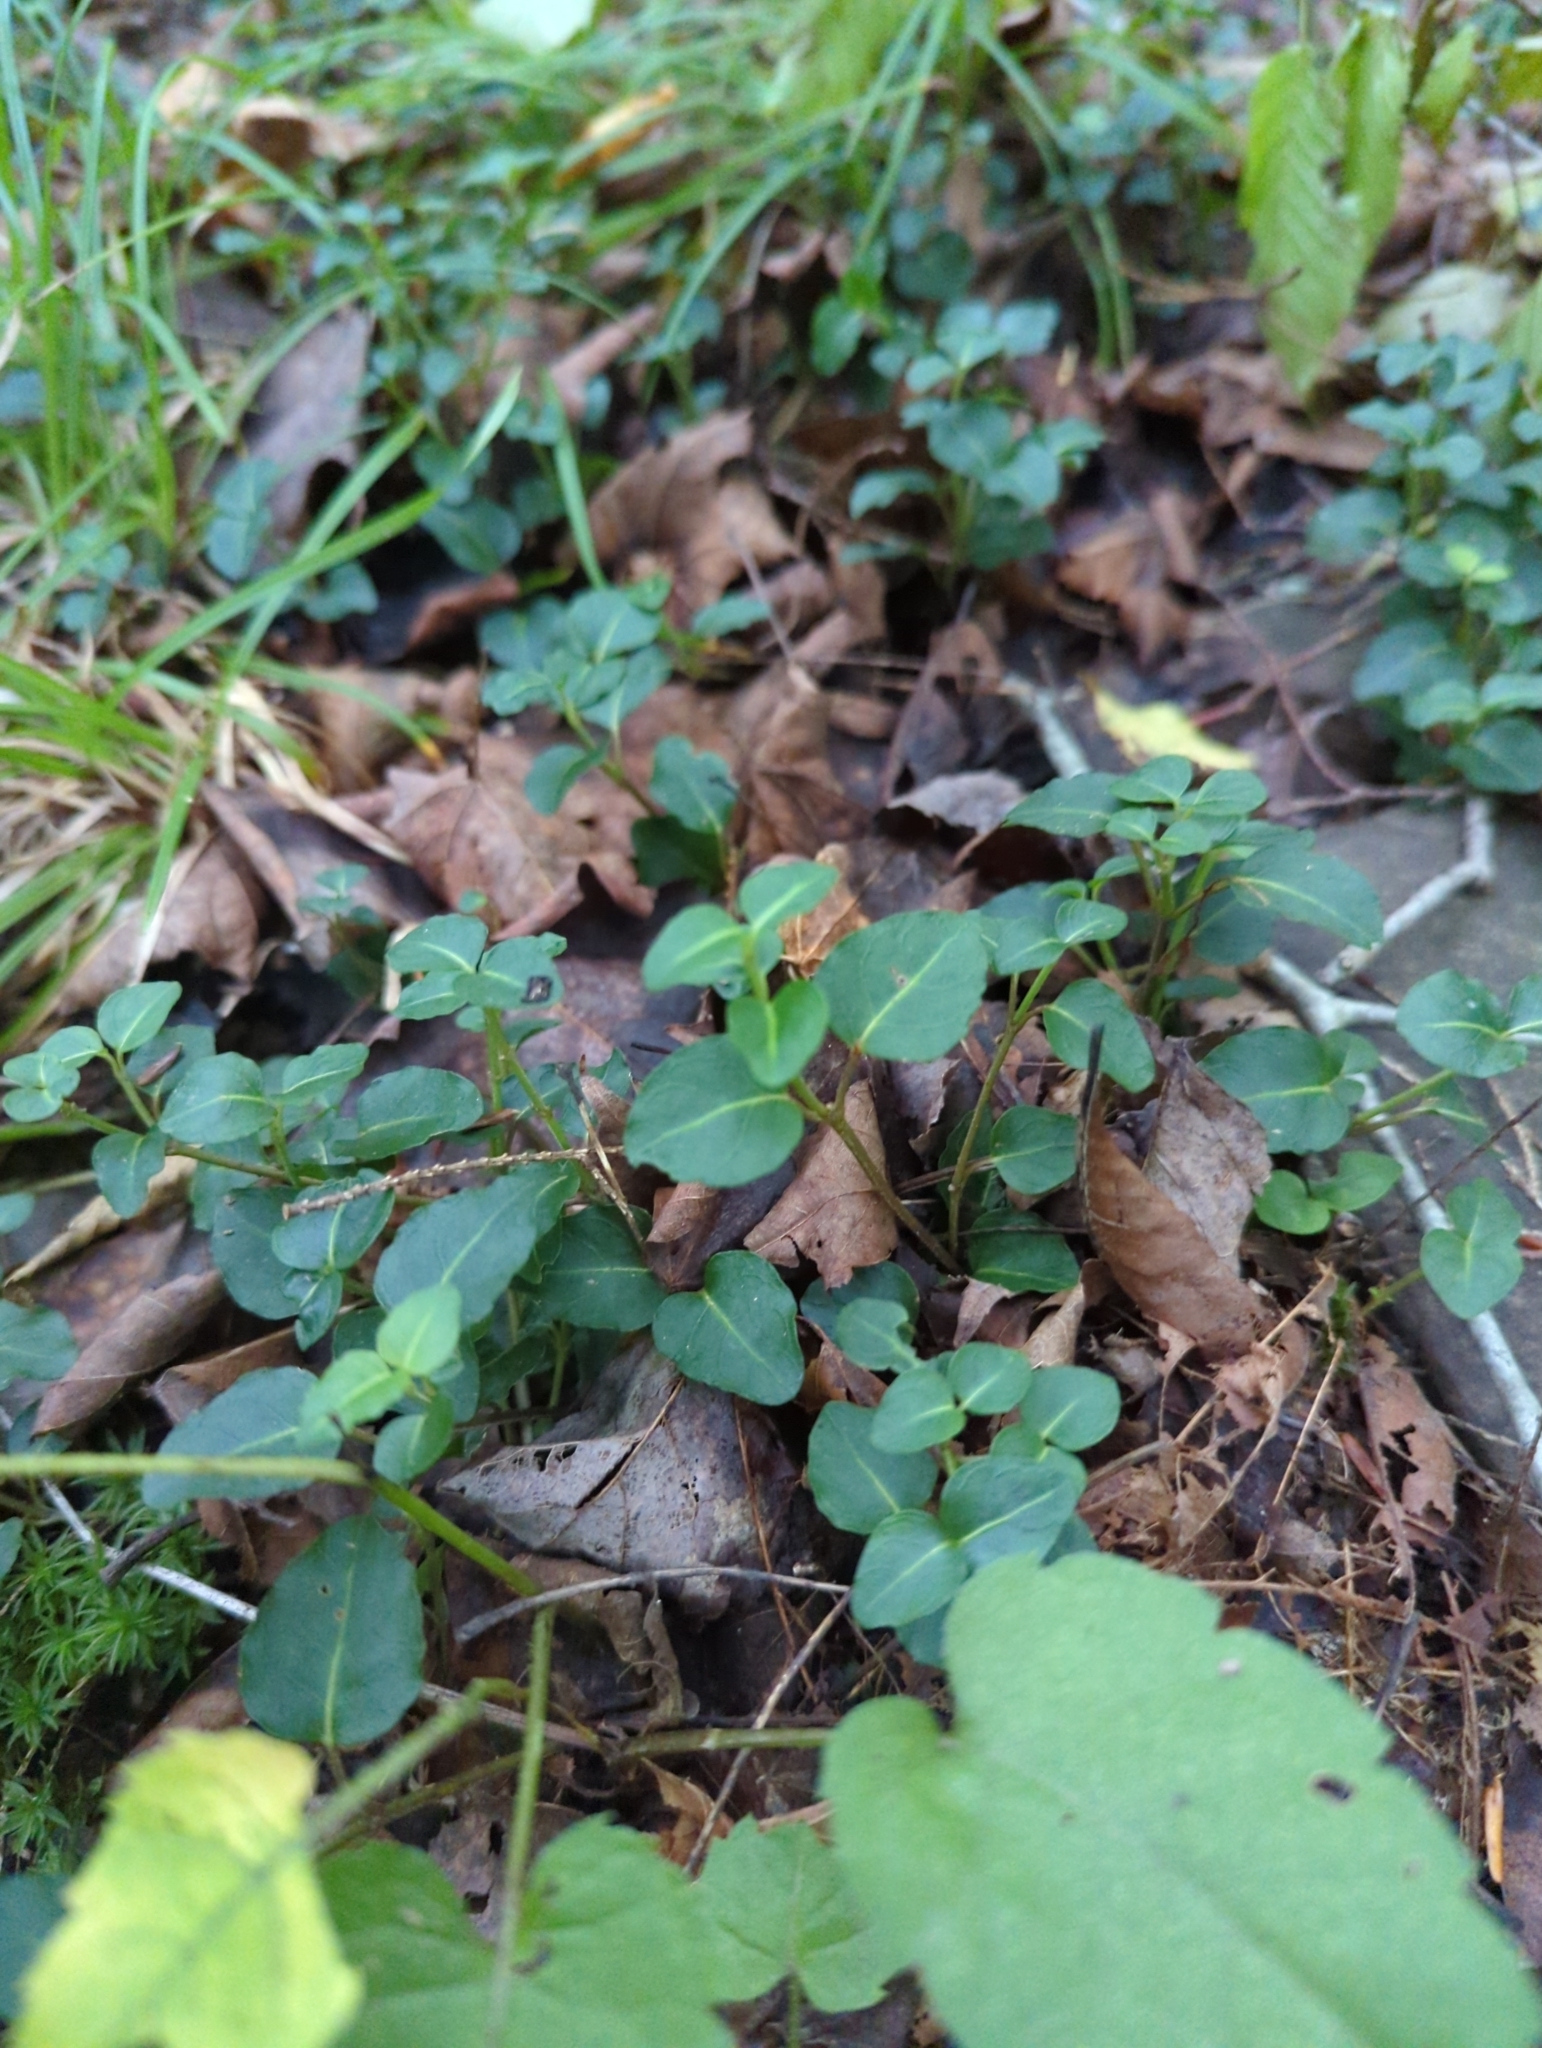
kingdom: Plantae
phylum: Tracheophyta
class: Magnoliopsida
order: Gentianales
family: Rubiaceae
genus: Mitchella
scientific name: Mitchella repens
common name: Partridge-berry
